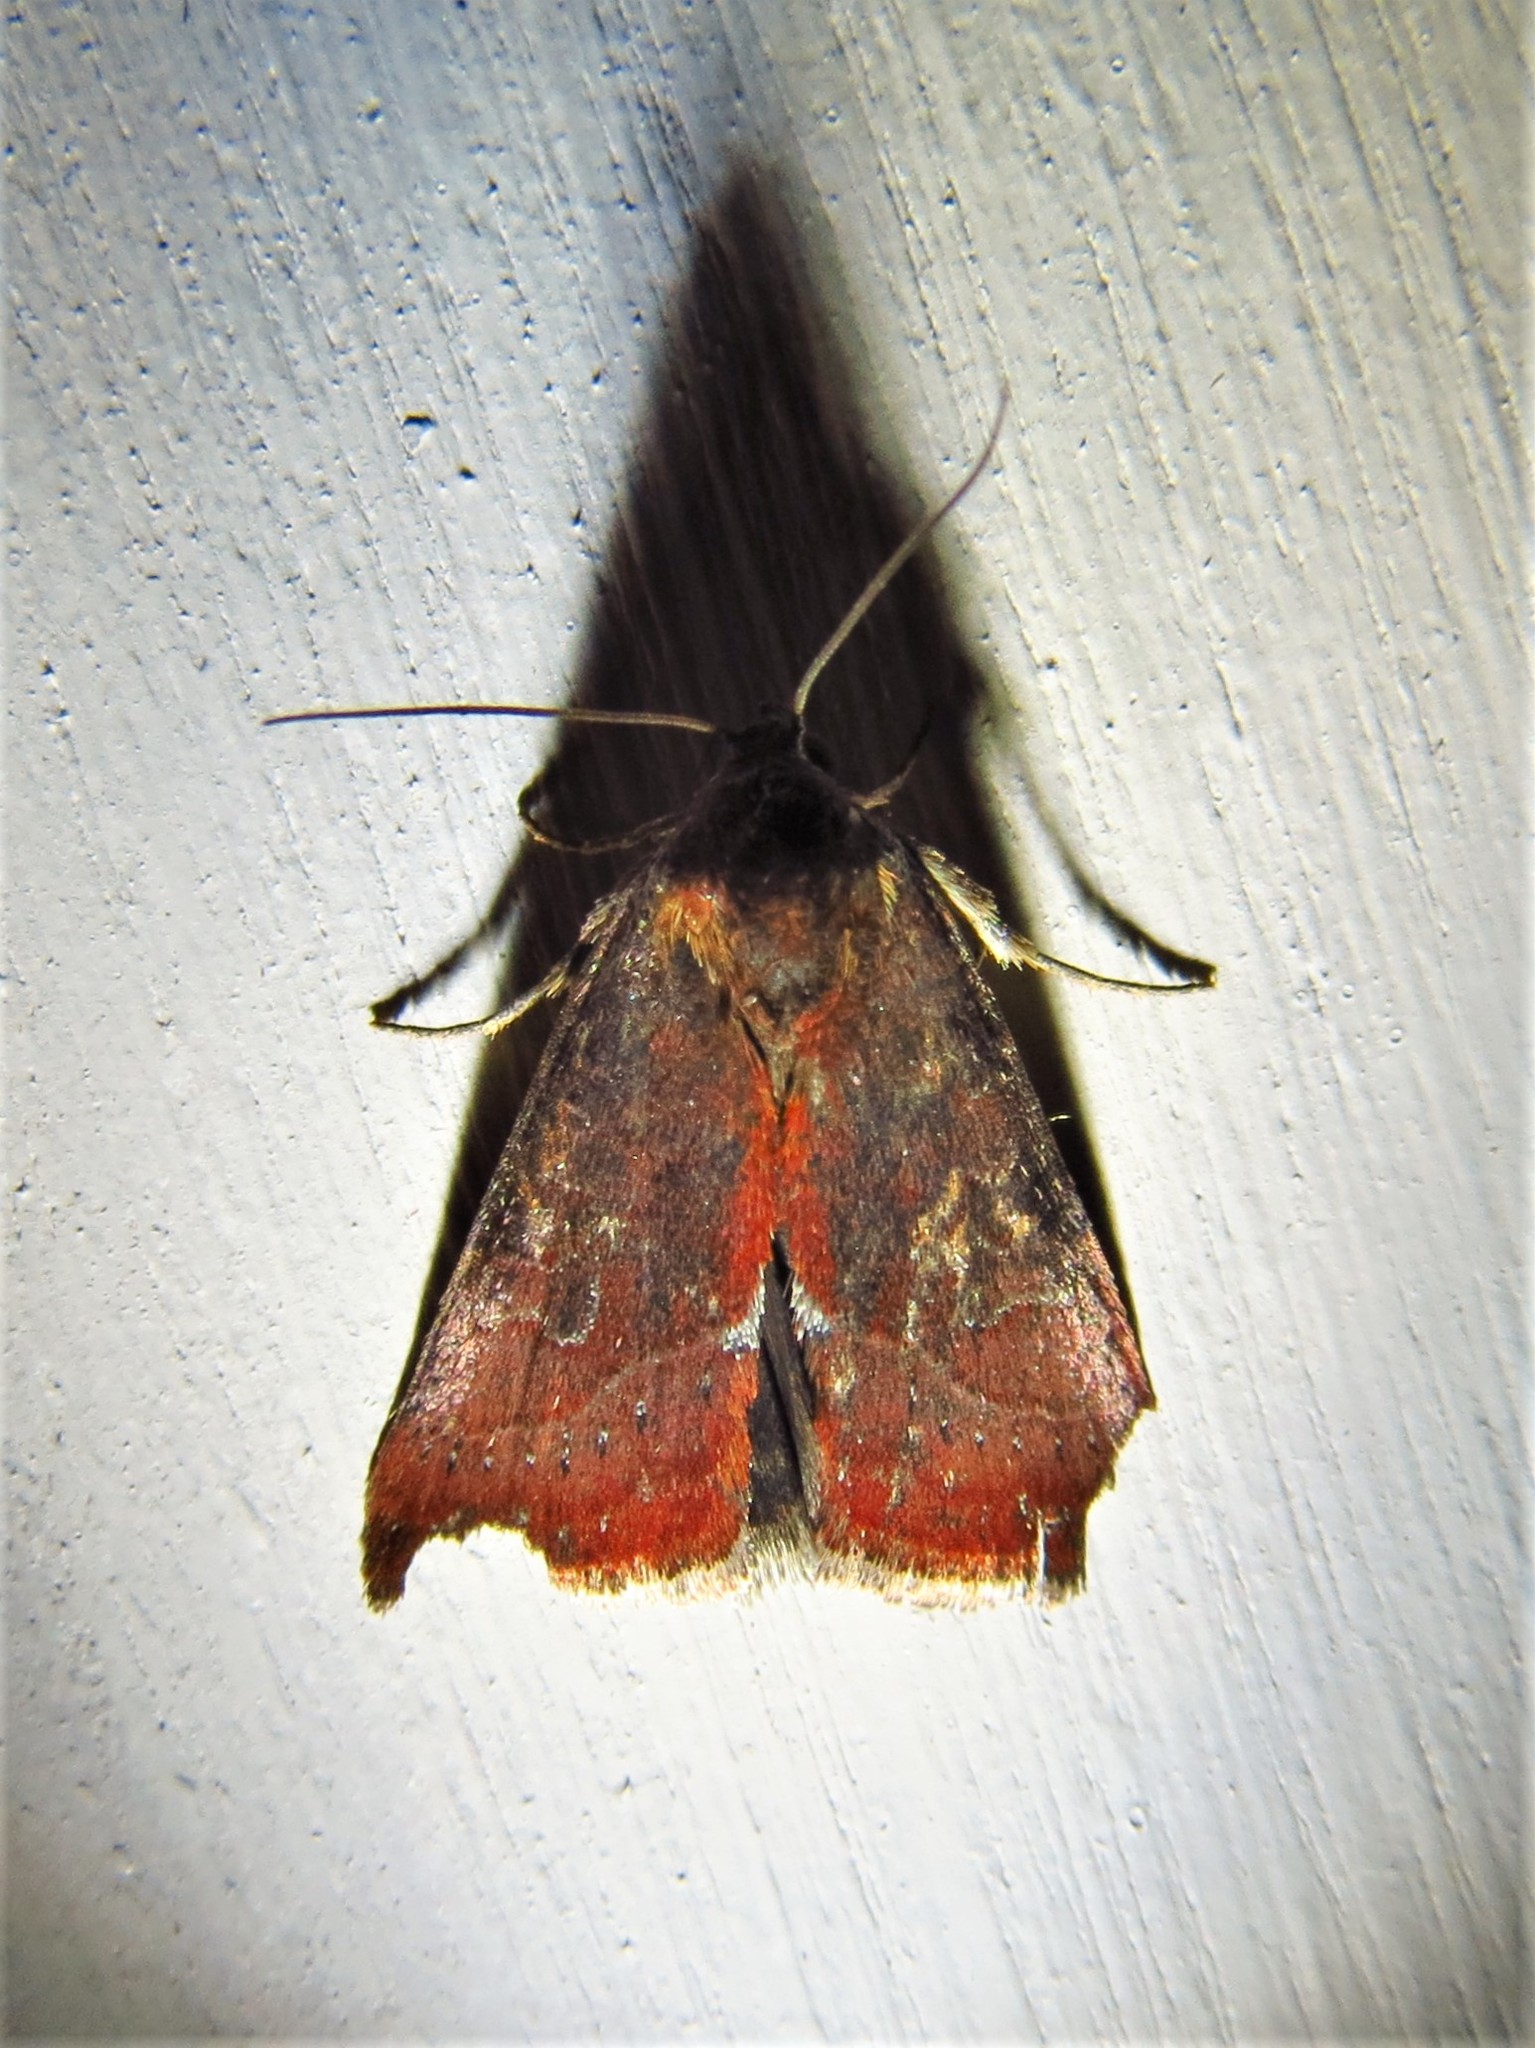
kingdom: Animalia
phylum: Arthropoda
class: Insecta
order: Lepidoptera
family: Noctuidae
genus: Galgula
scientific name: Galgula partita
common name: Wedgeling
